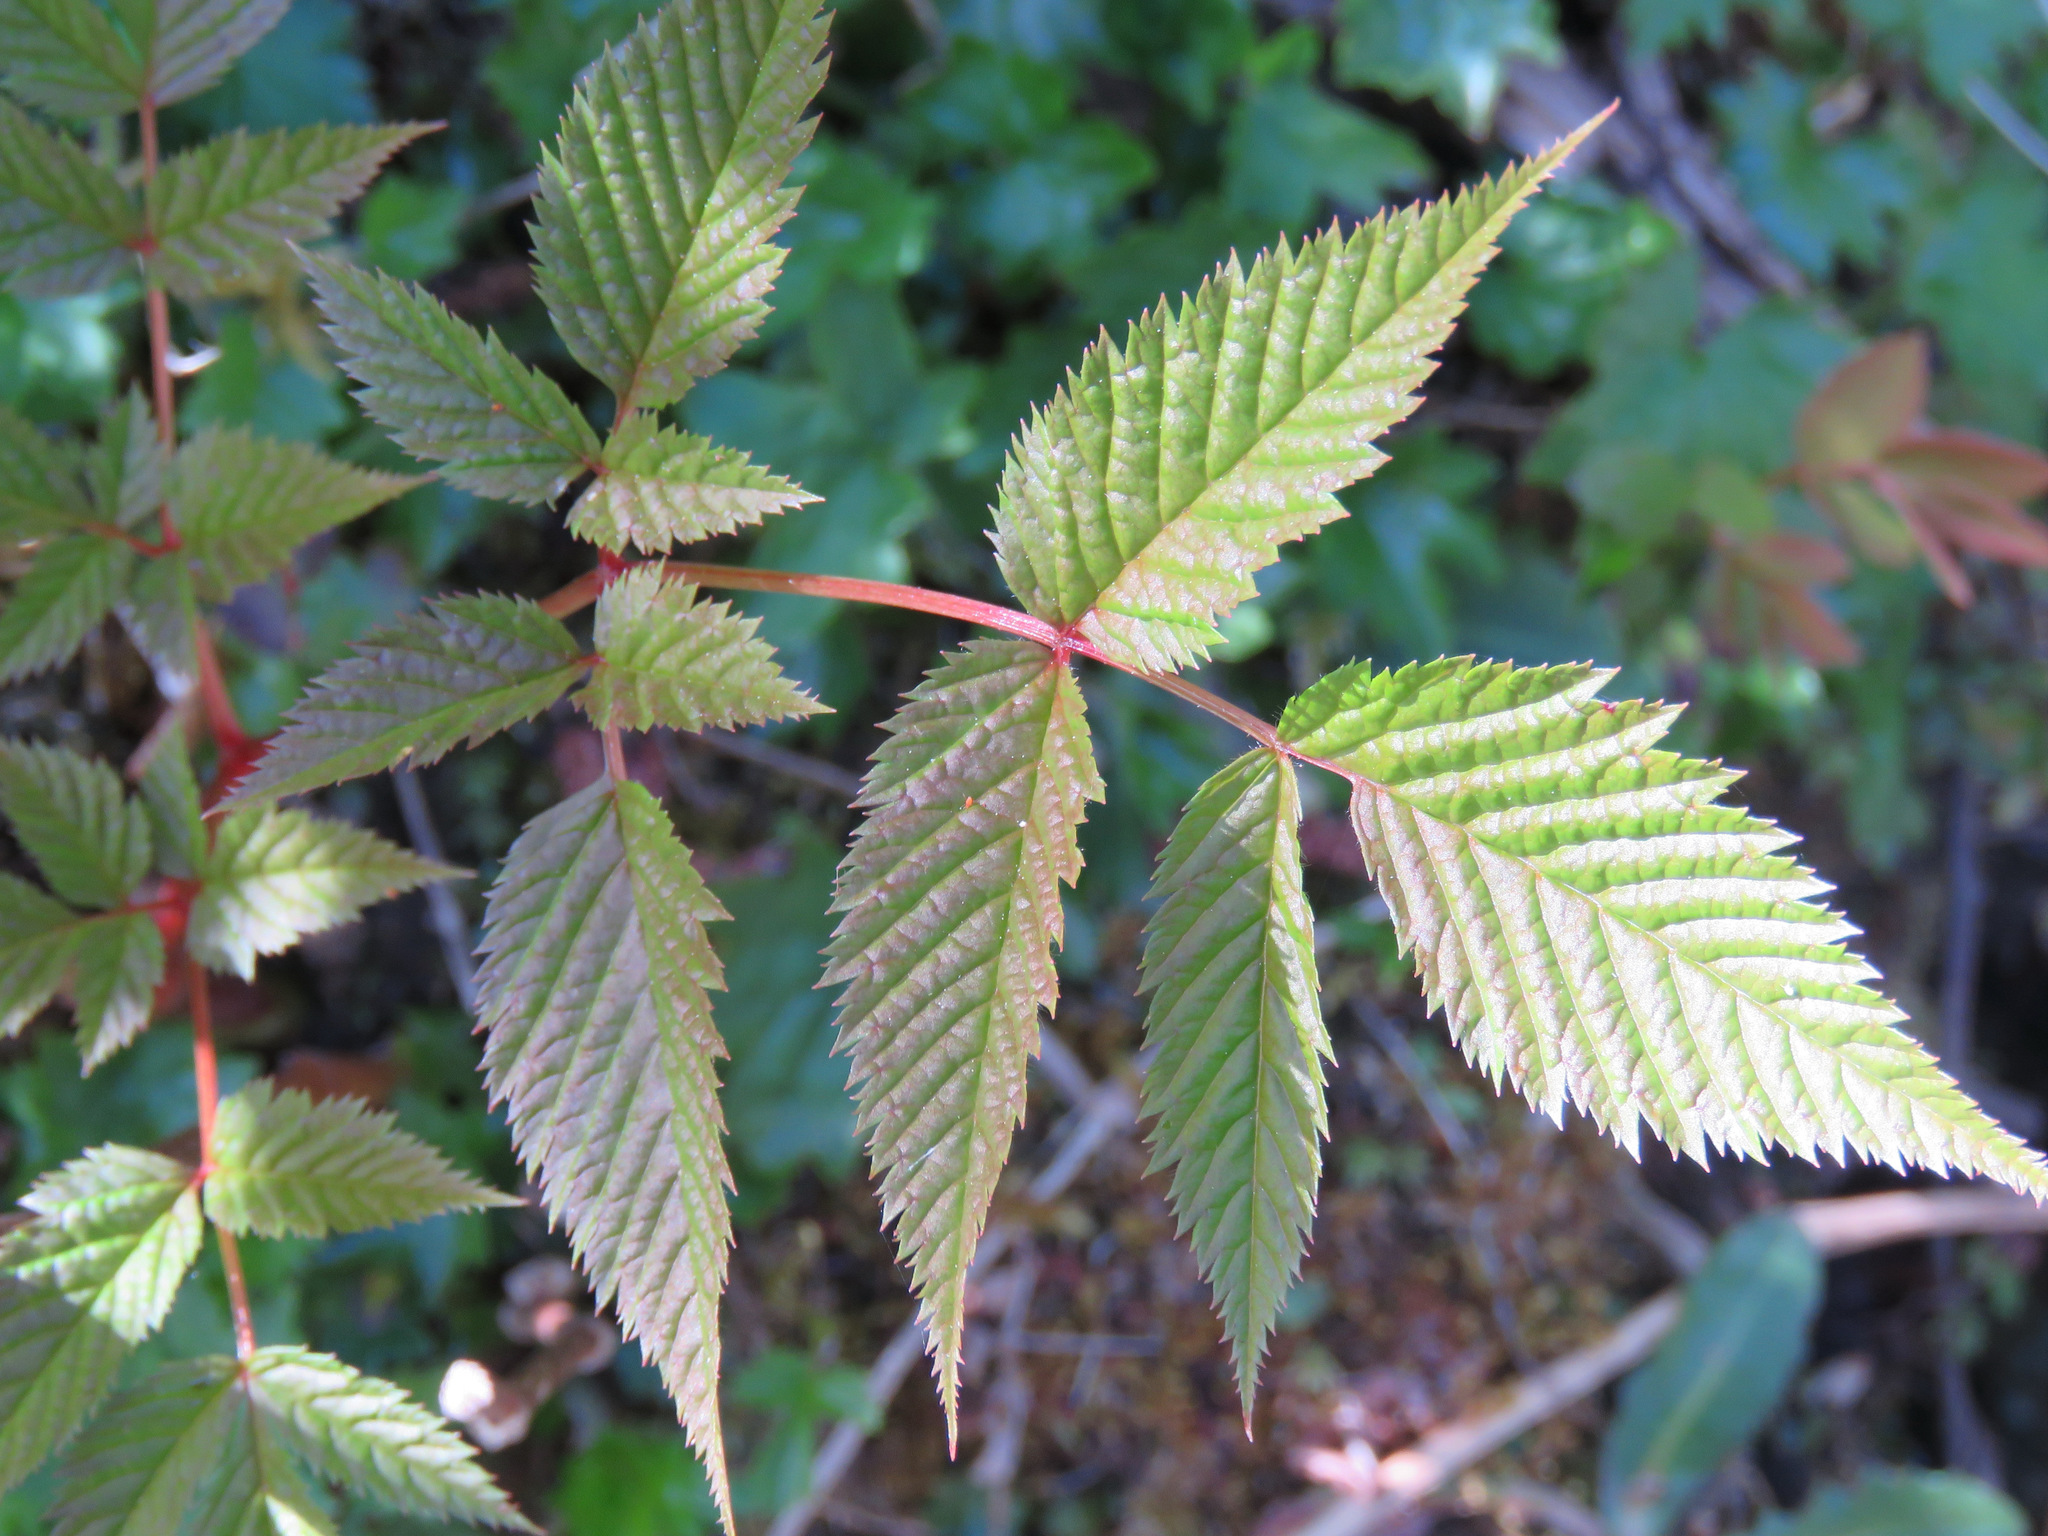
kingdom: Plantae
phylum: Tracheophyta
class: Magnoliopsida
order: Rosales
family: Rosaceae
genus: Aruncus
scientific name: Aruncus dioicus
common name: Buck's-beard
